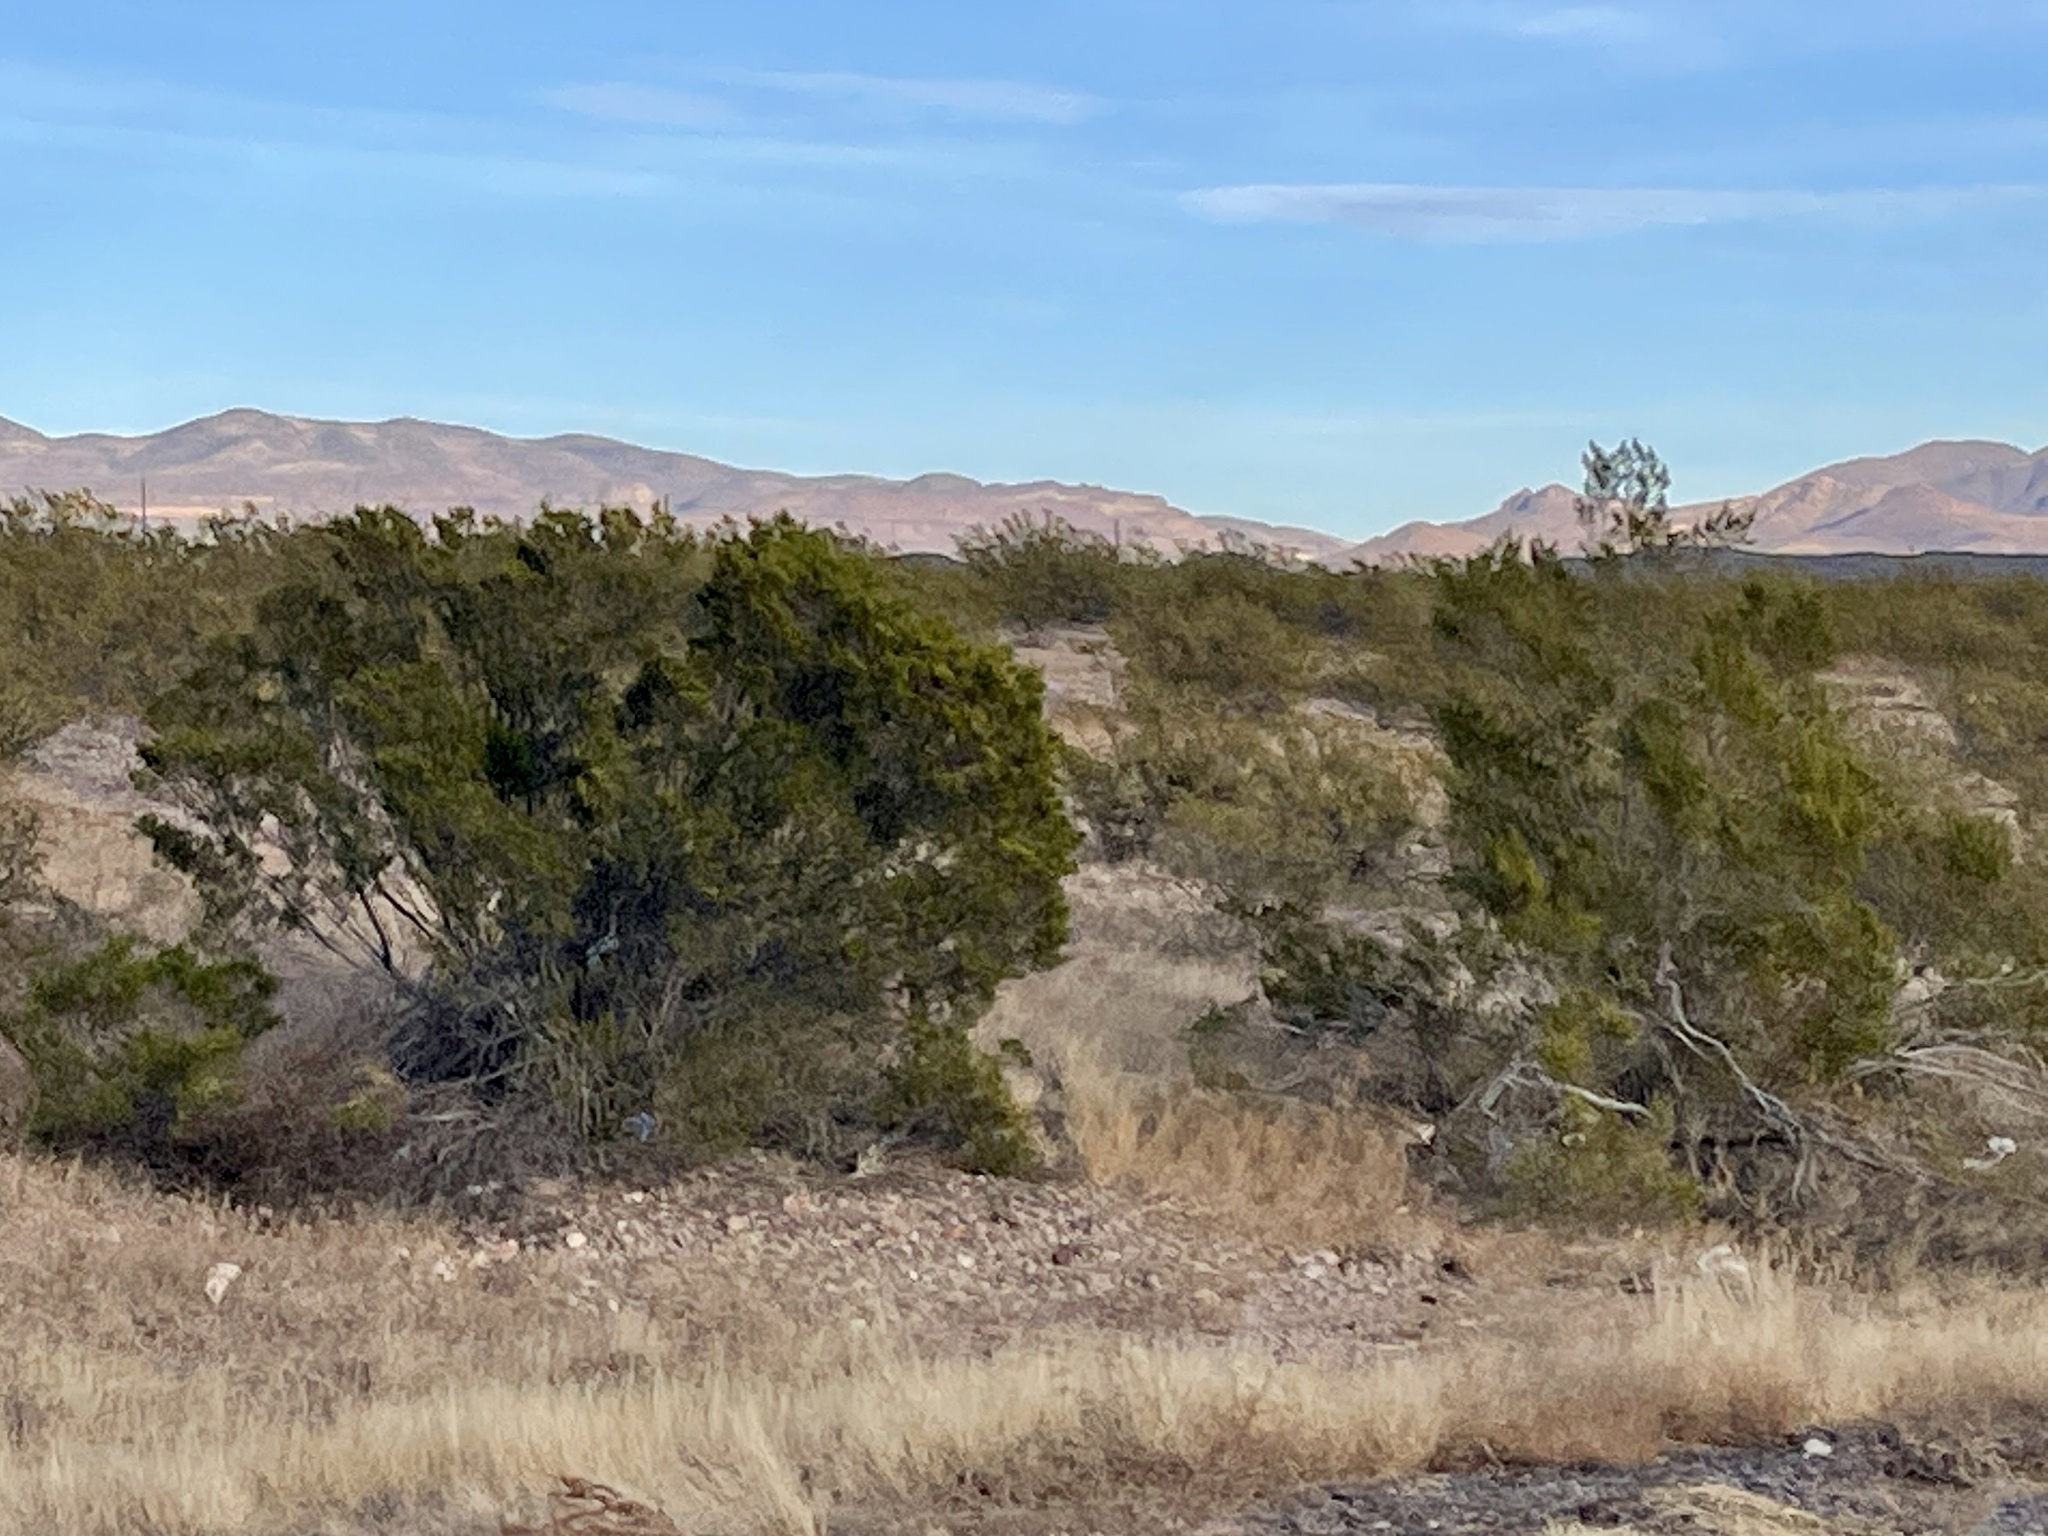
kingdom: Plantae
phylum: Tracheophyta
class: Magnoliopsida
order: Zygophyllales
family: Zygophyllaceae
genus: Larrea
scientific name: Larrea tridentata
